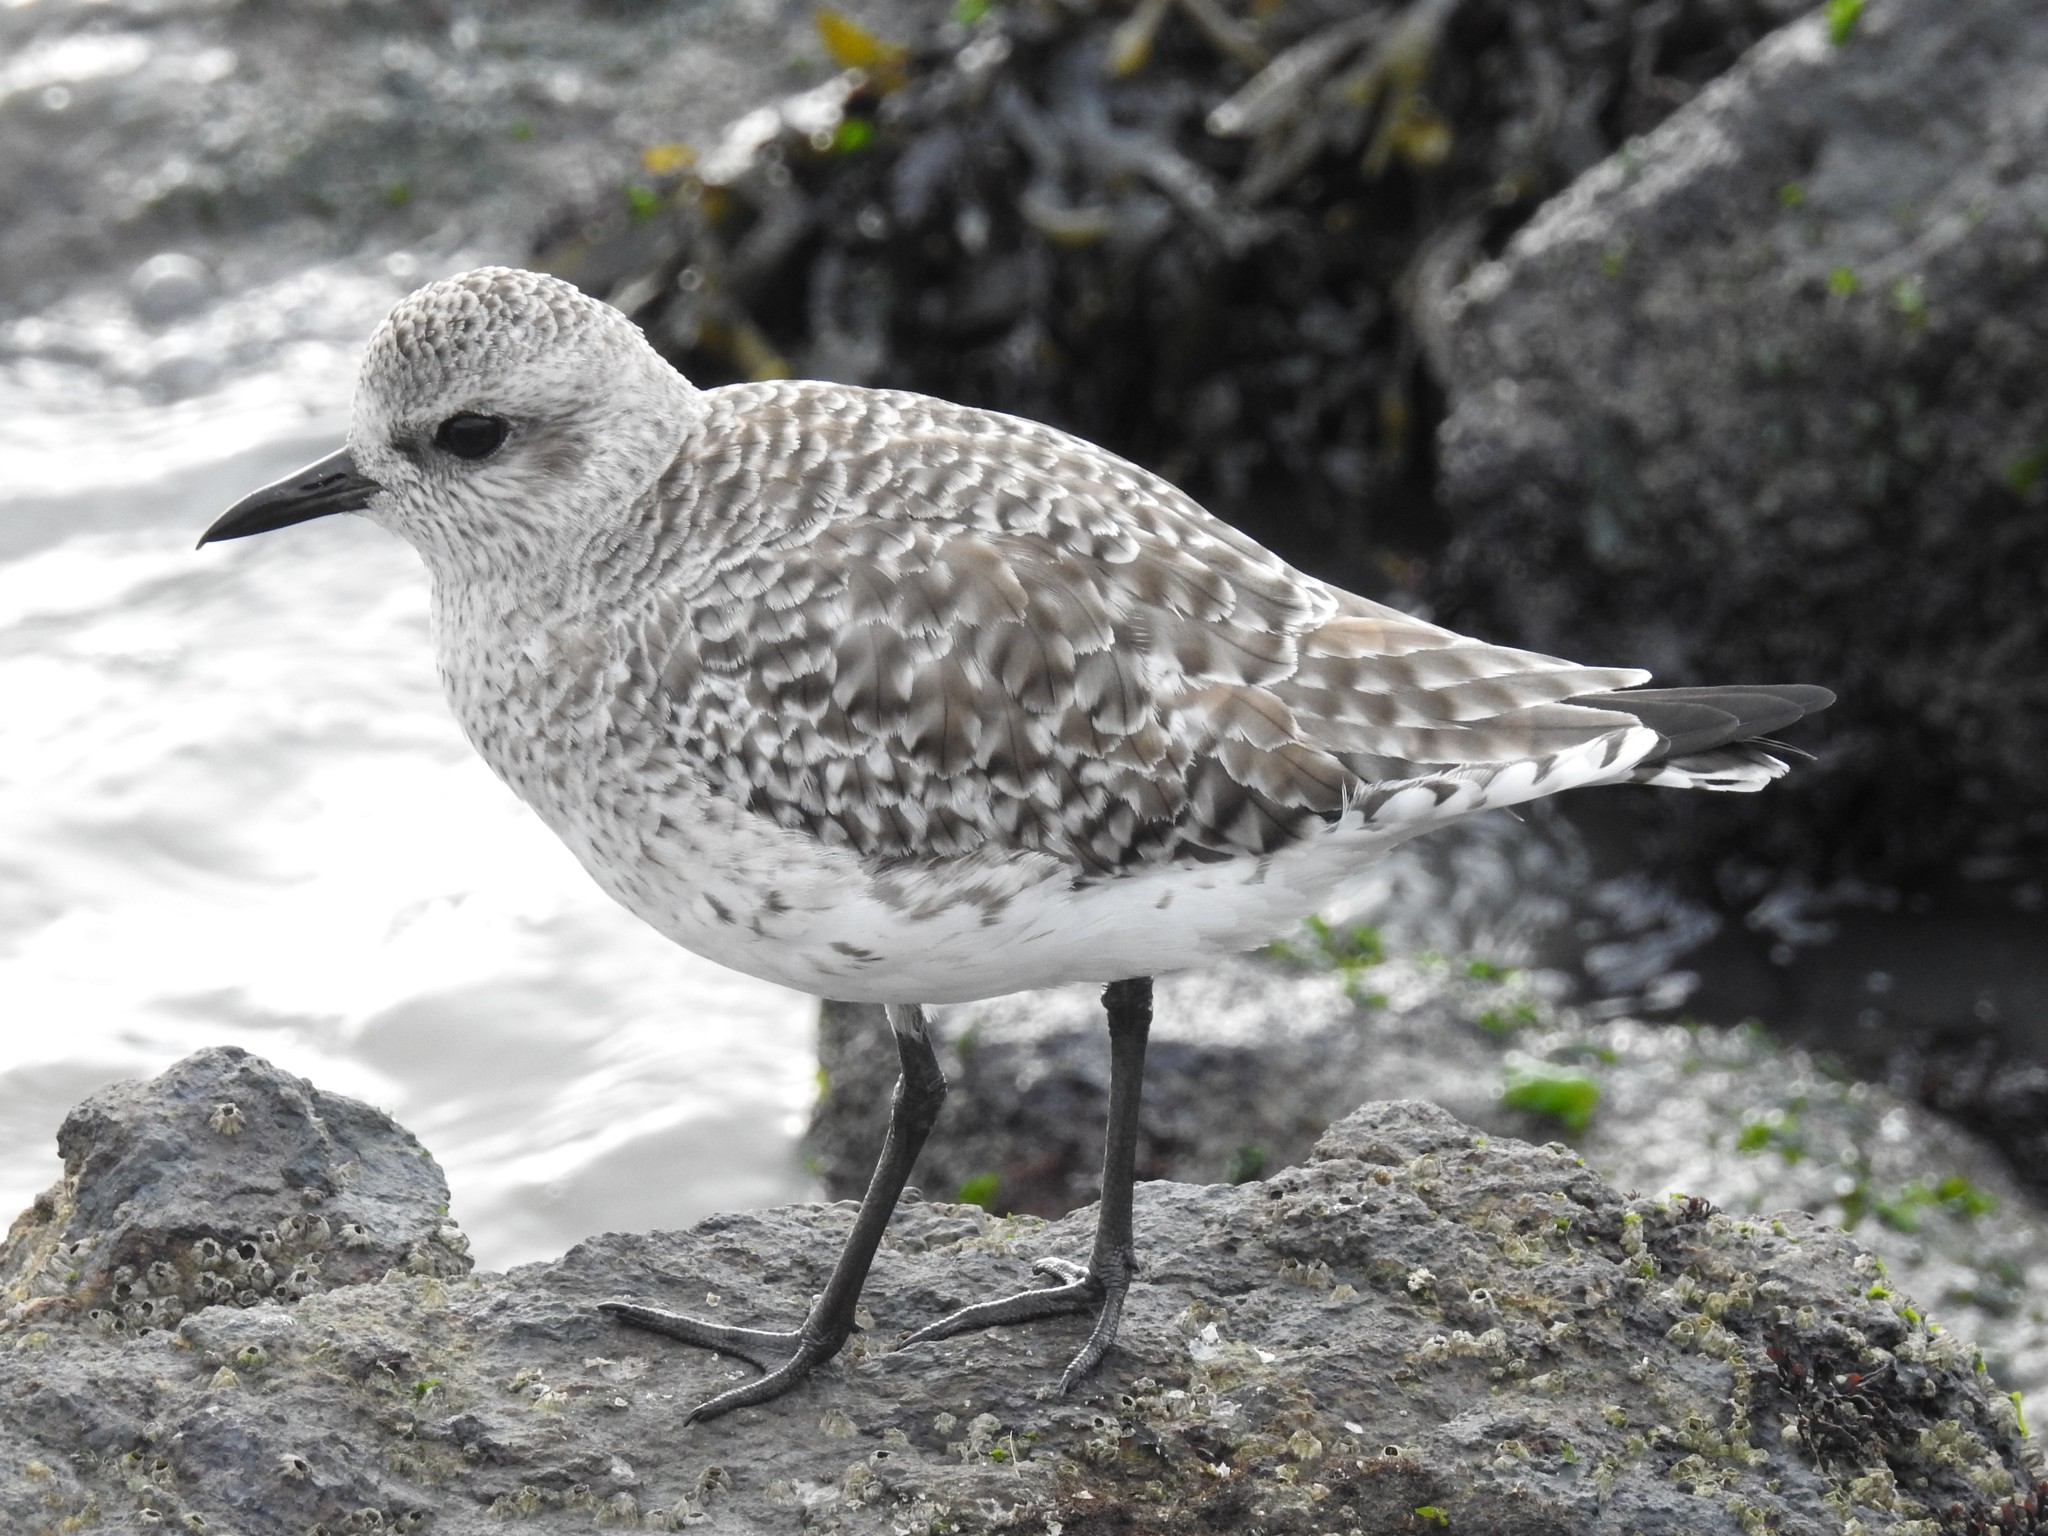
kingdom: Animalia
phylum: Chordata
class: Aves
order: Charadriiformes
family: Charadriidae
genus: Pluvialis
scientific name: Pluvialis squatarola
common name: Grey plover
